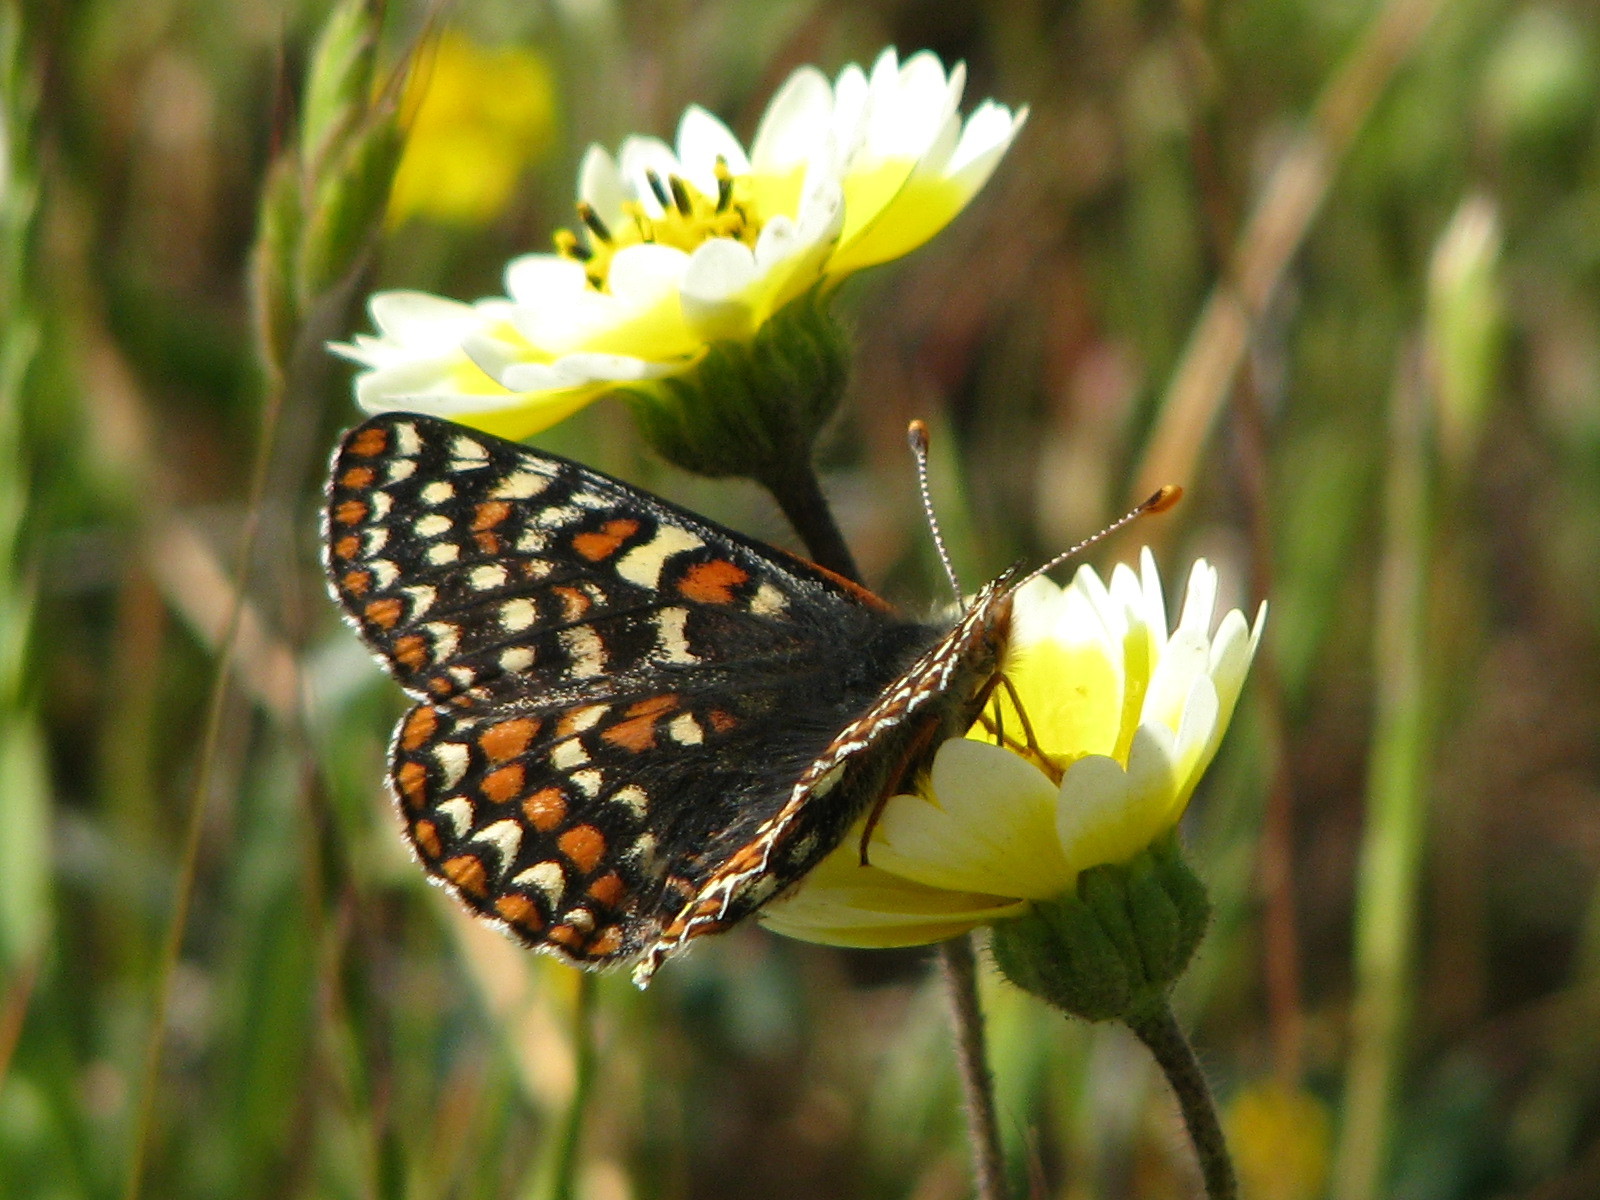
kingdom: Animalia
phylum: Arthropoda
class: Insecta
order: Lepidoptera
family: Nymphalidae
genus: Occidryas
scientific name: Occidryas editha
